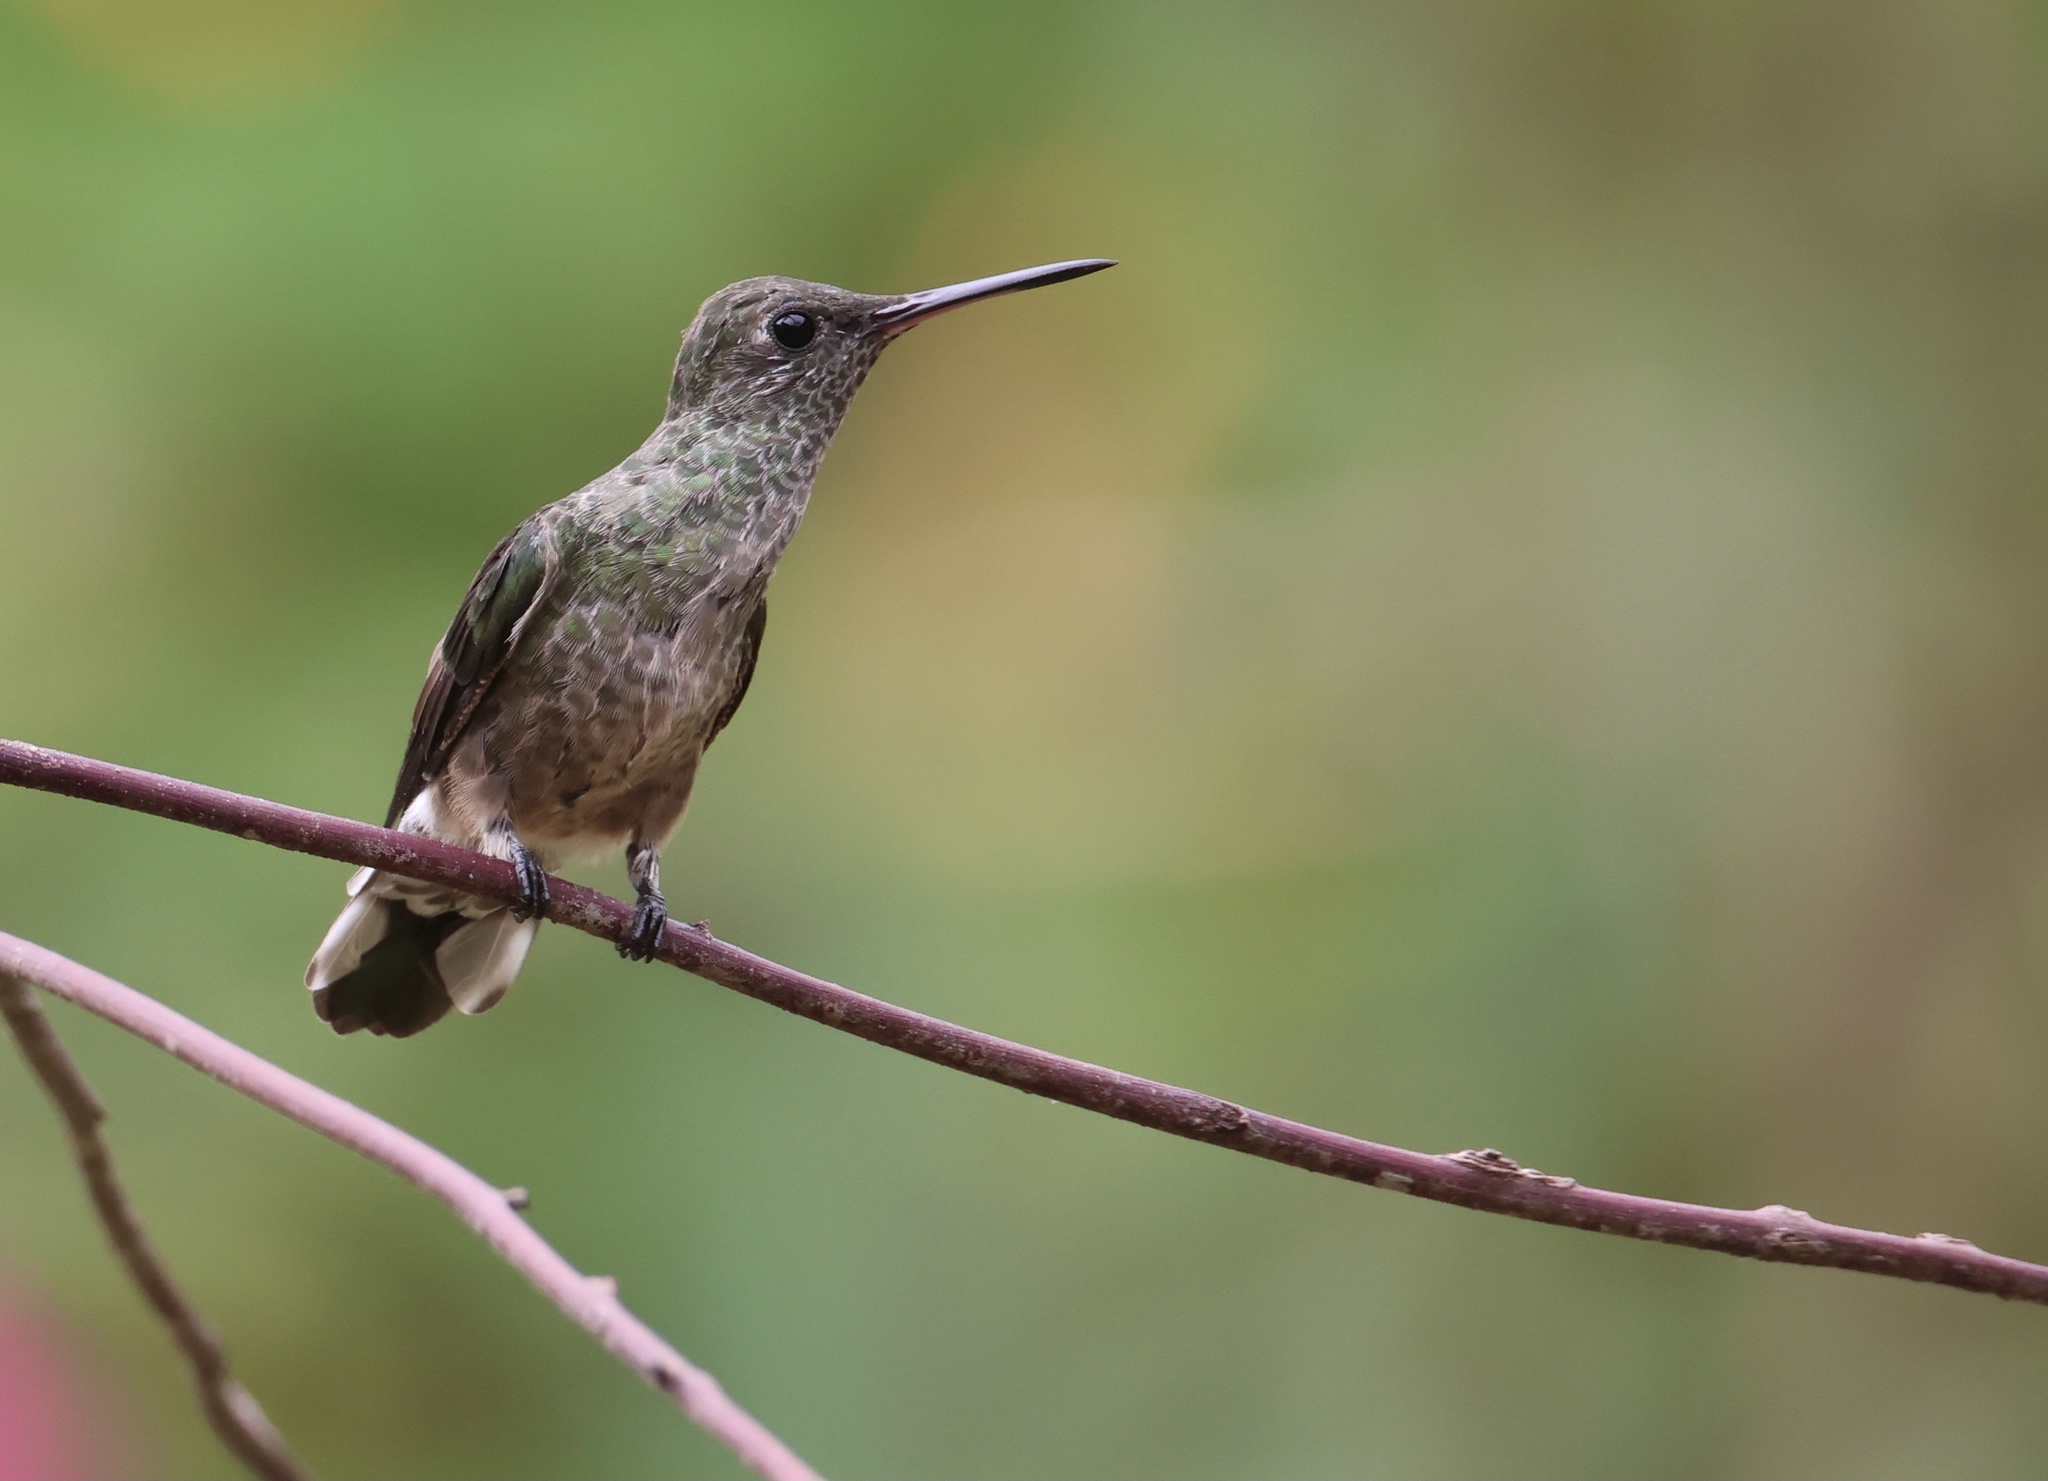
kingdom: Animalia
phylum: Chordata
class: Aves
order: Apodiformes
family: Trochilidae
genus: Phaeochroa
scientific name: Phaeochroa cuvierii
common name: Scaly-breasted hummingbird
